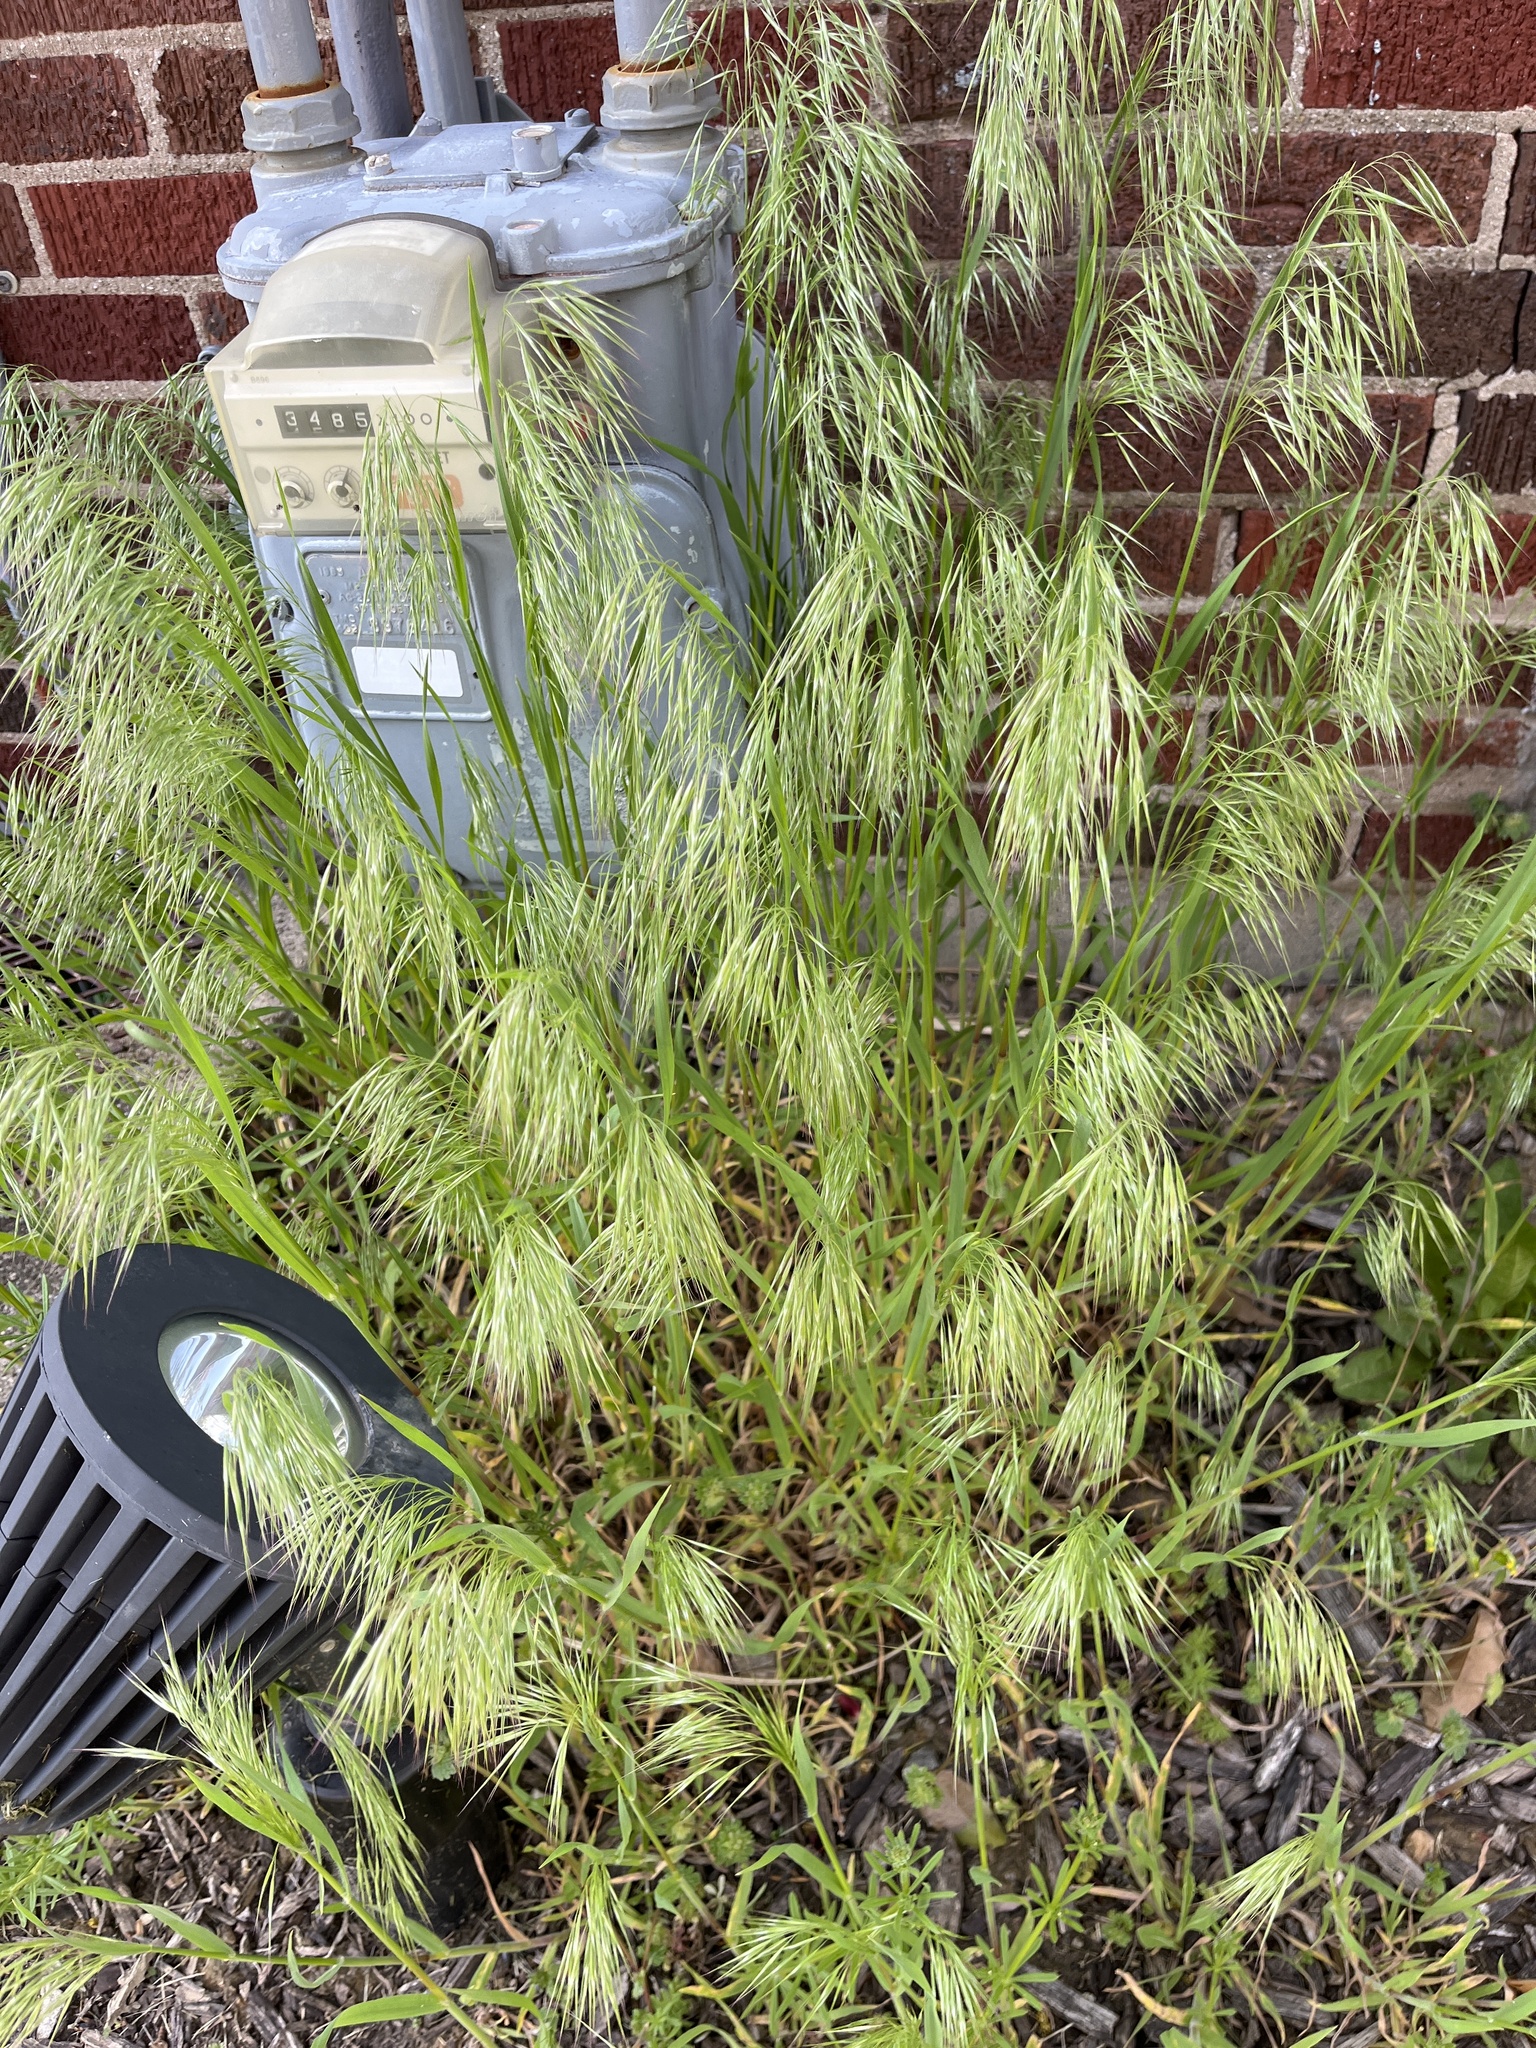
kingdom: Plantae
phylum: Tracheophyta
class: Liliopsida
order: Poales
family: Poaceae
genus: Bromus
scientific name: Bromus tectorum
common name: Cheatgrass
